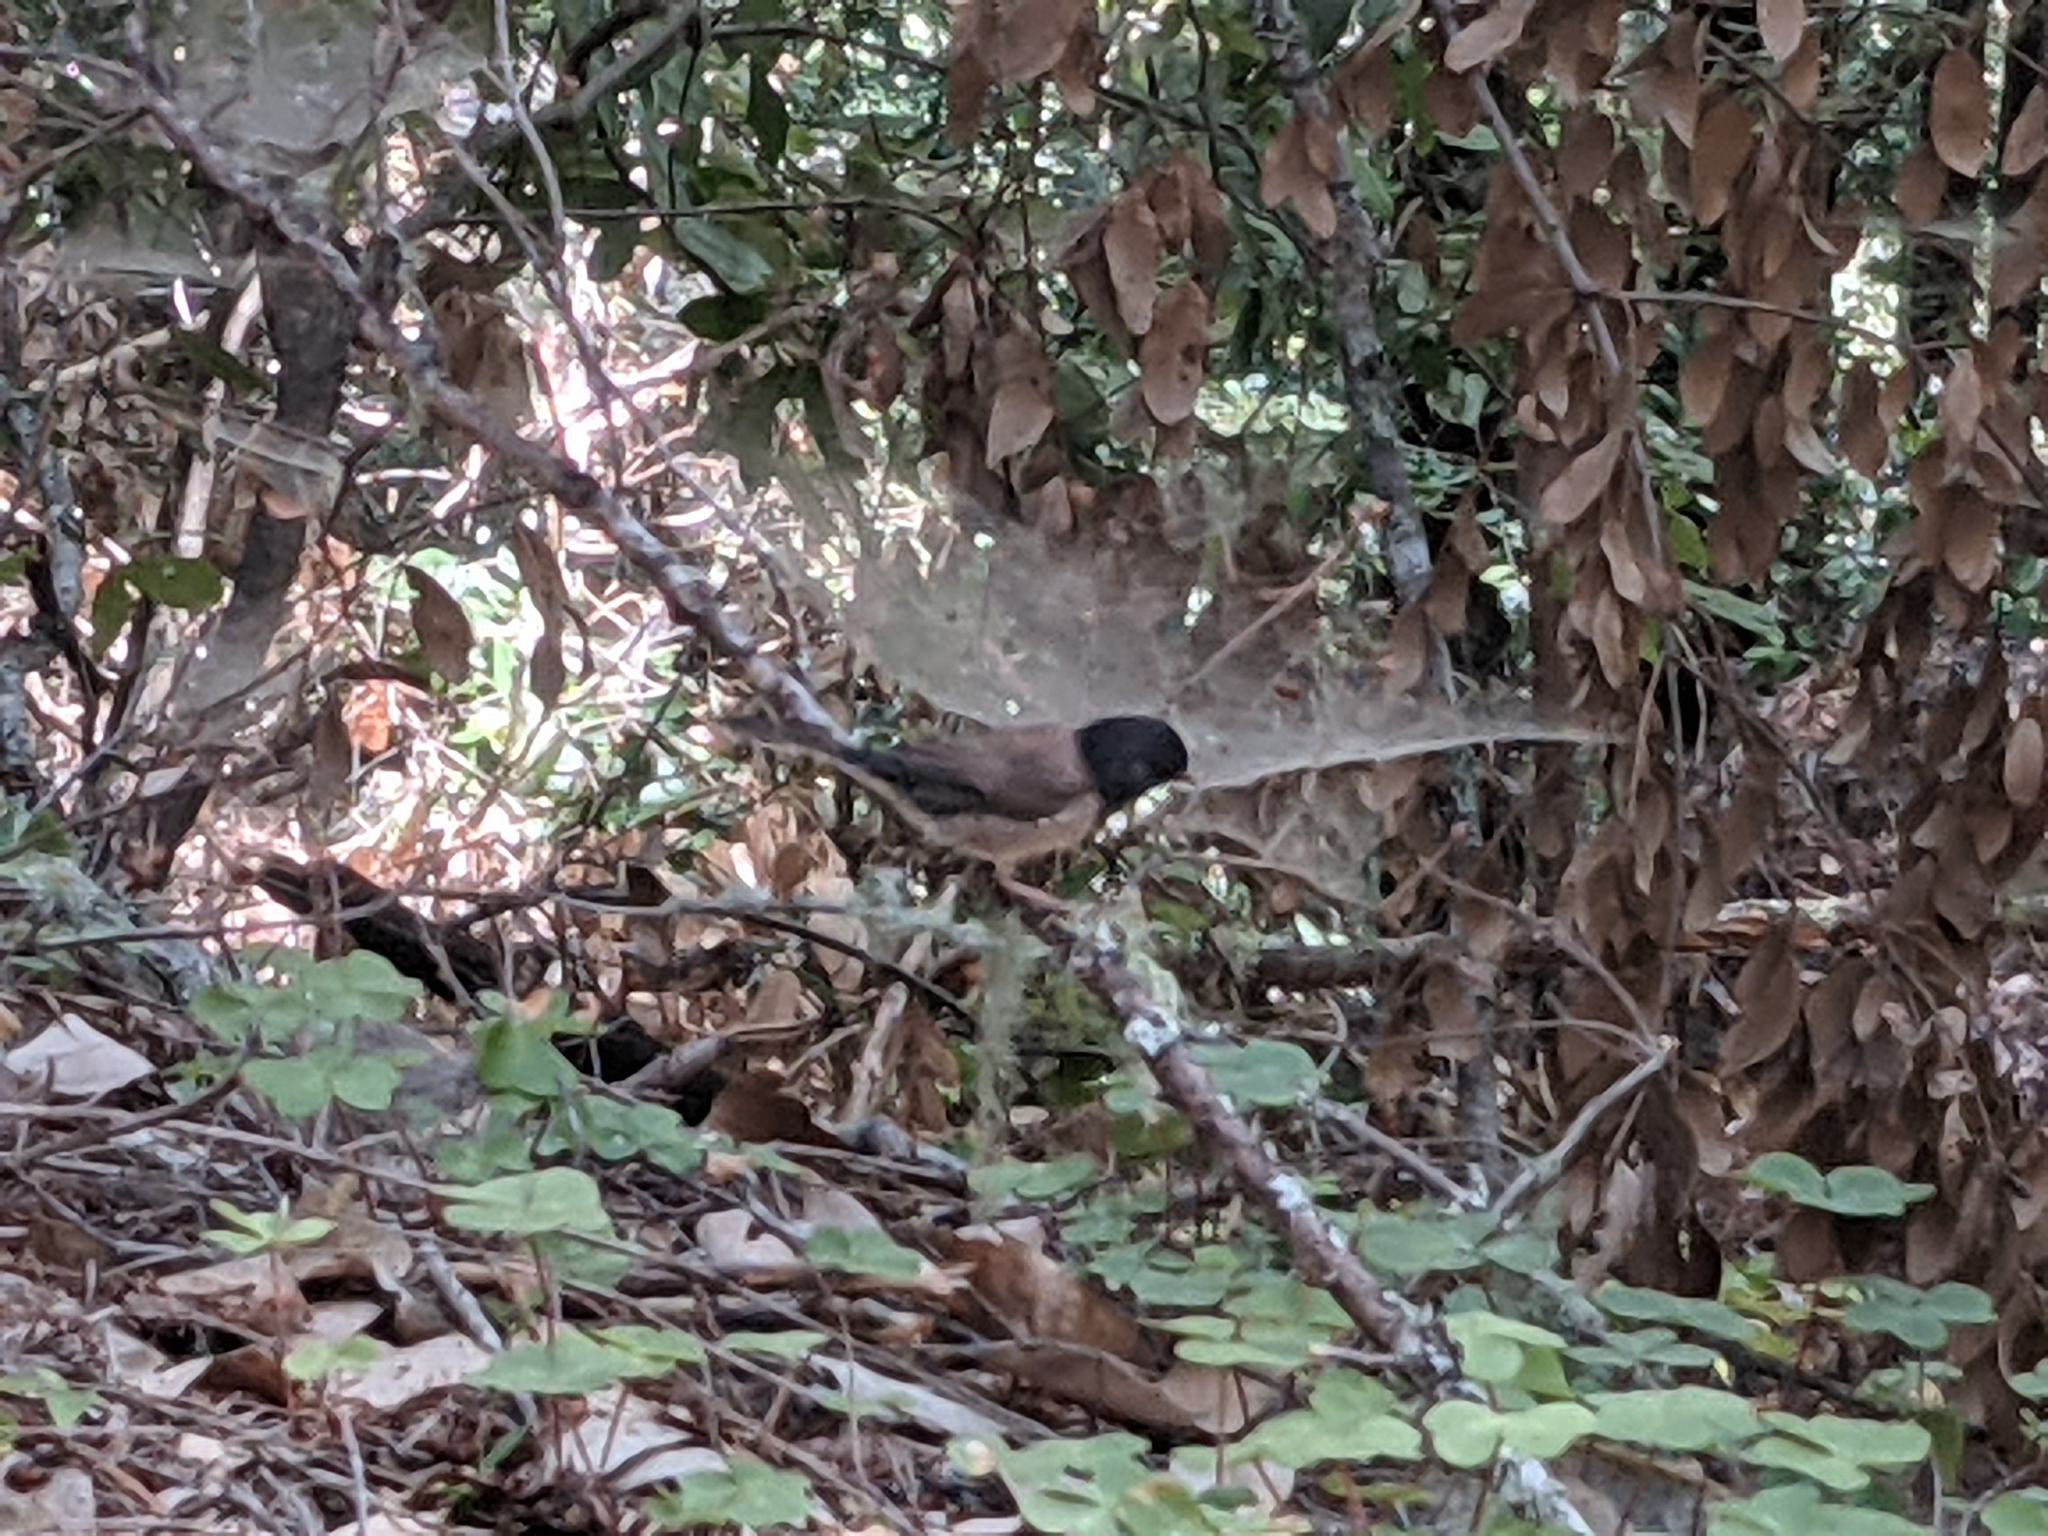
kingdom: Animalia
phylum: Chordata
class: Aves
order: Passeriformes
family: Passerellidae
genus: Junco
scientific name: Junco hyemalis
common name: Dark-eyed junco
